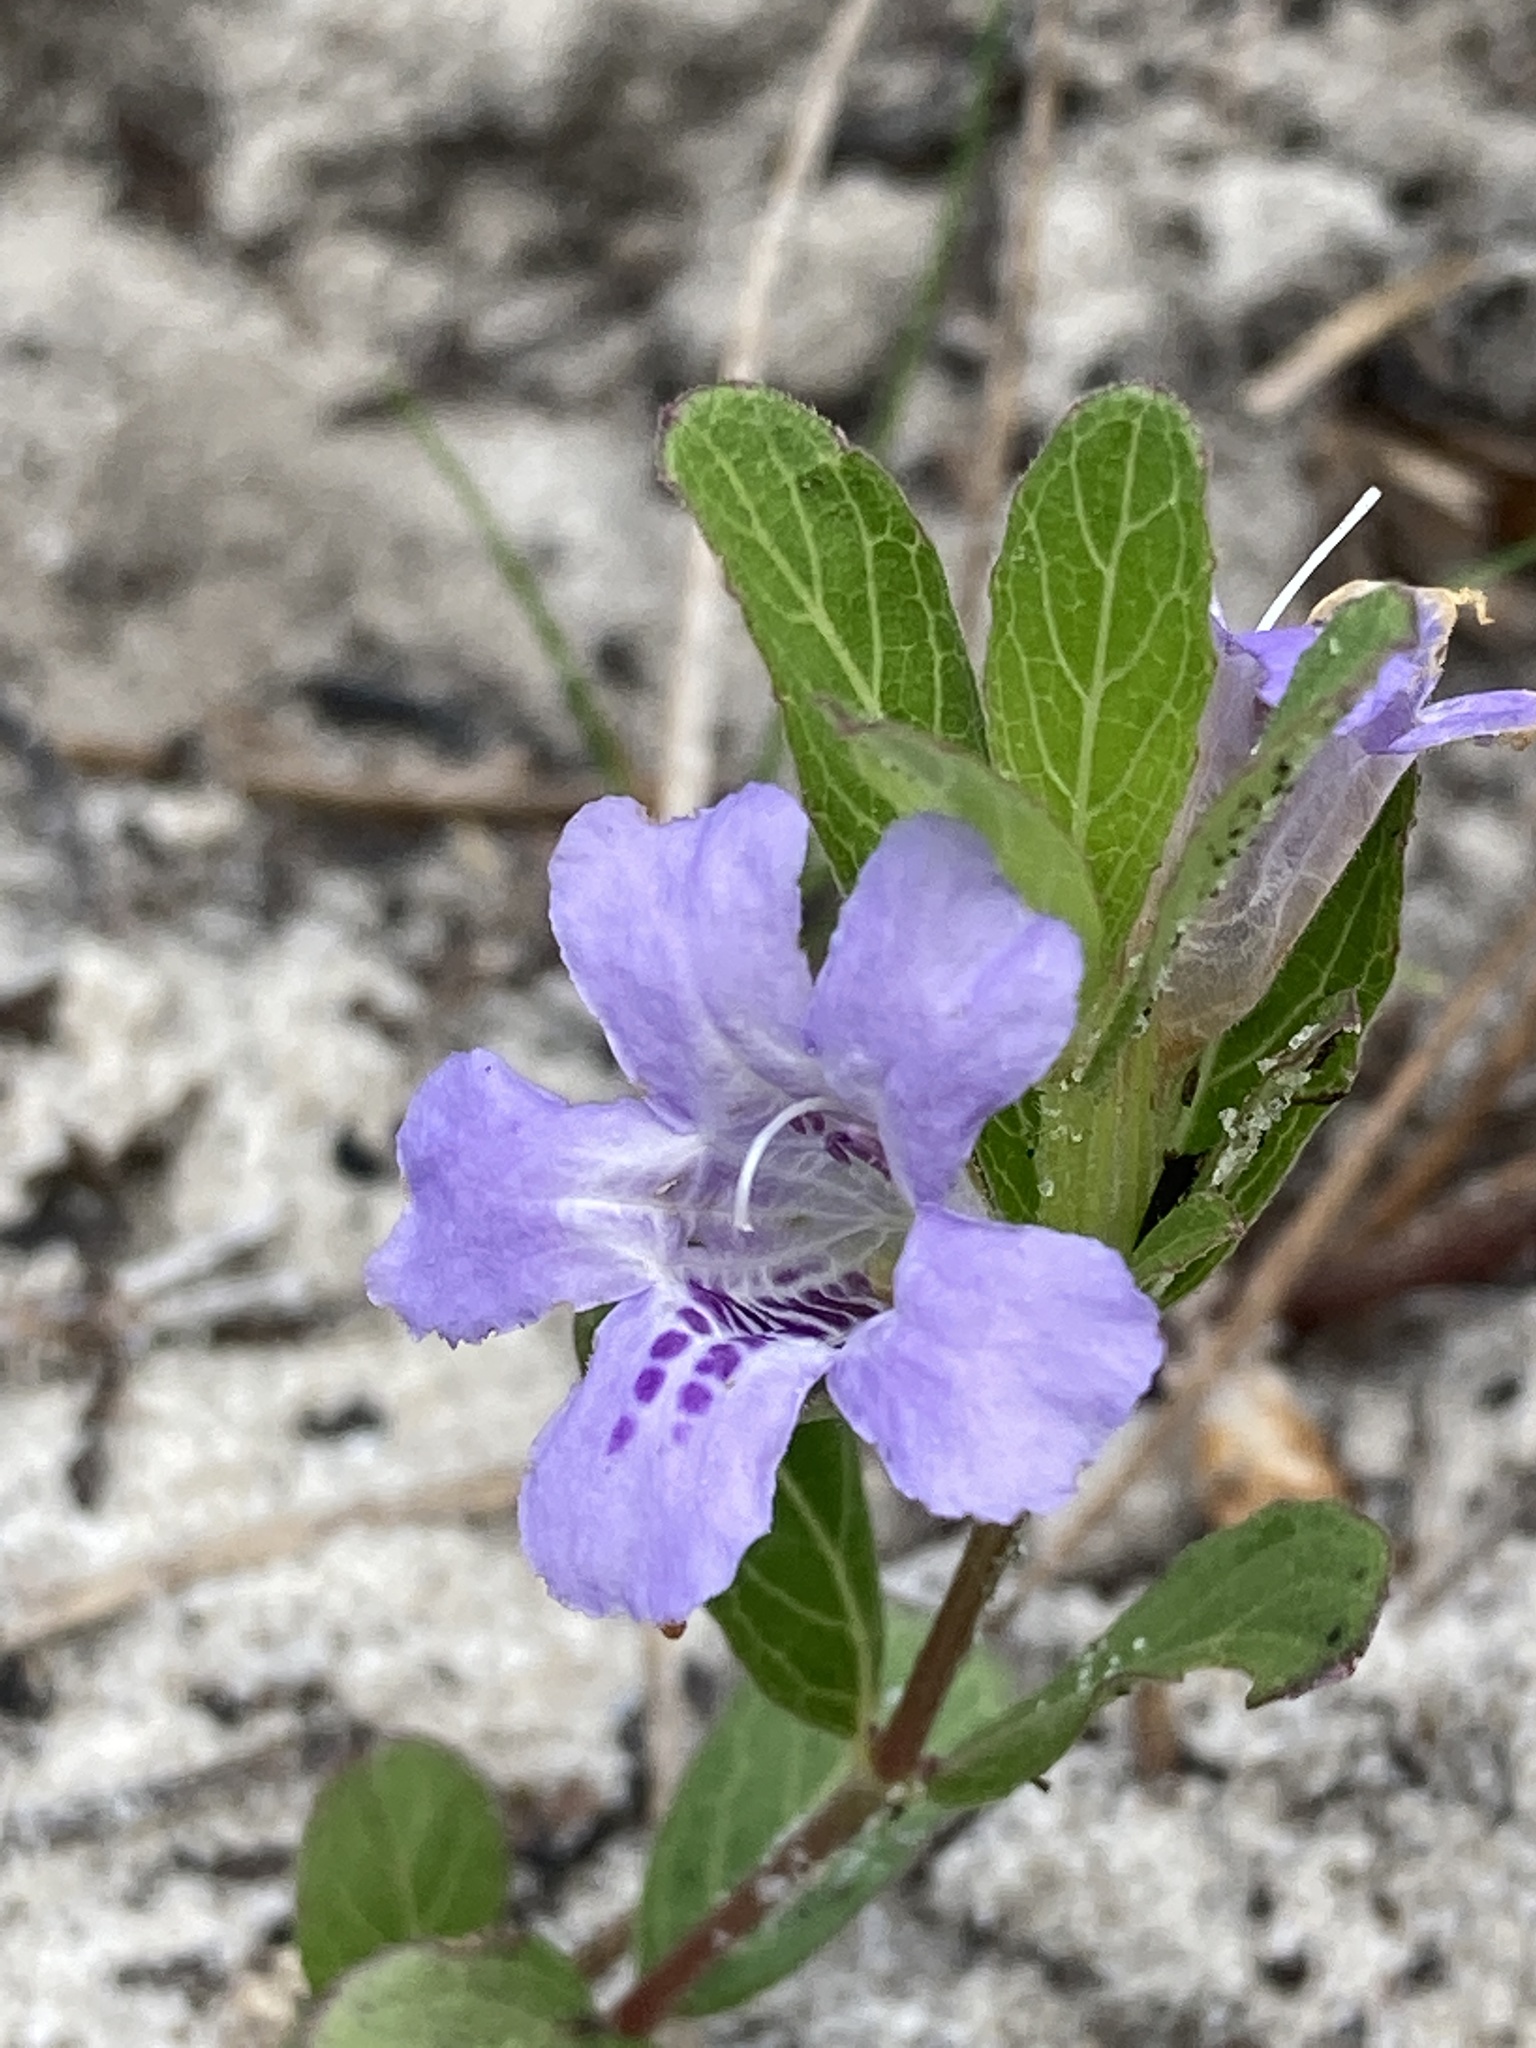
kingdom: Plantae
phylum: Tracheophyta
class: Magnoliopsida
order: Lamiales
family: Acanthaceae
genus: Dyschoriste
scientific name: Dyschoriste oblongifolia
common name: Blue twinflower
